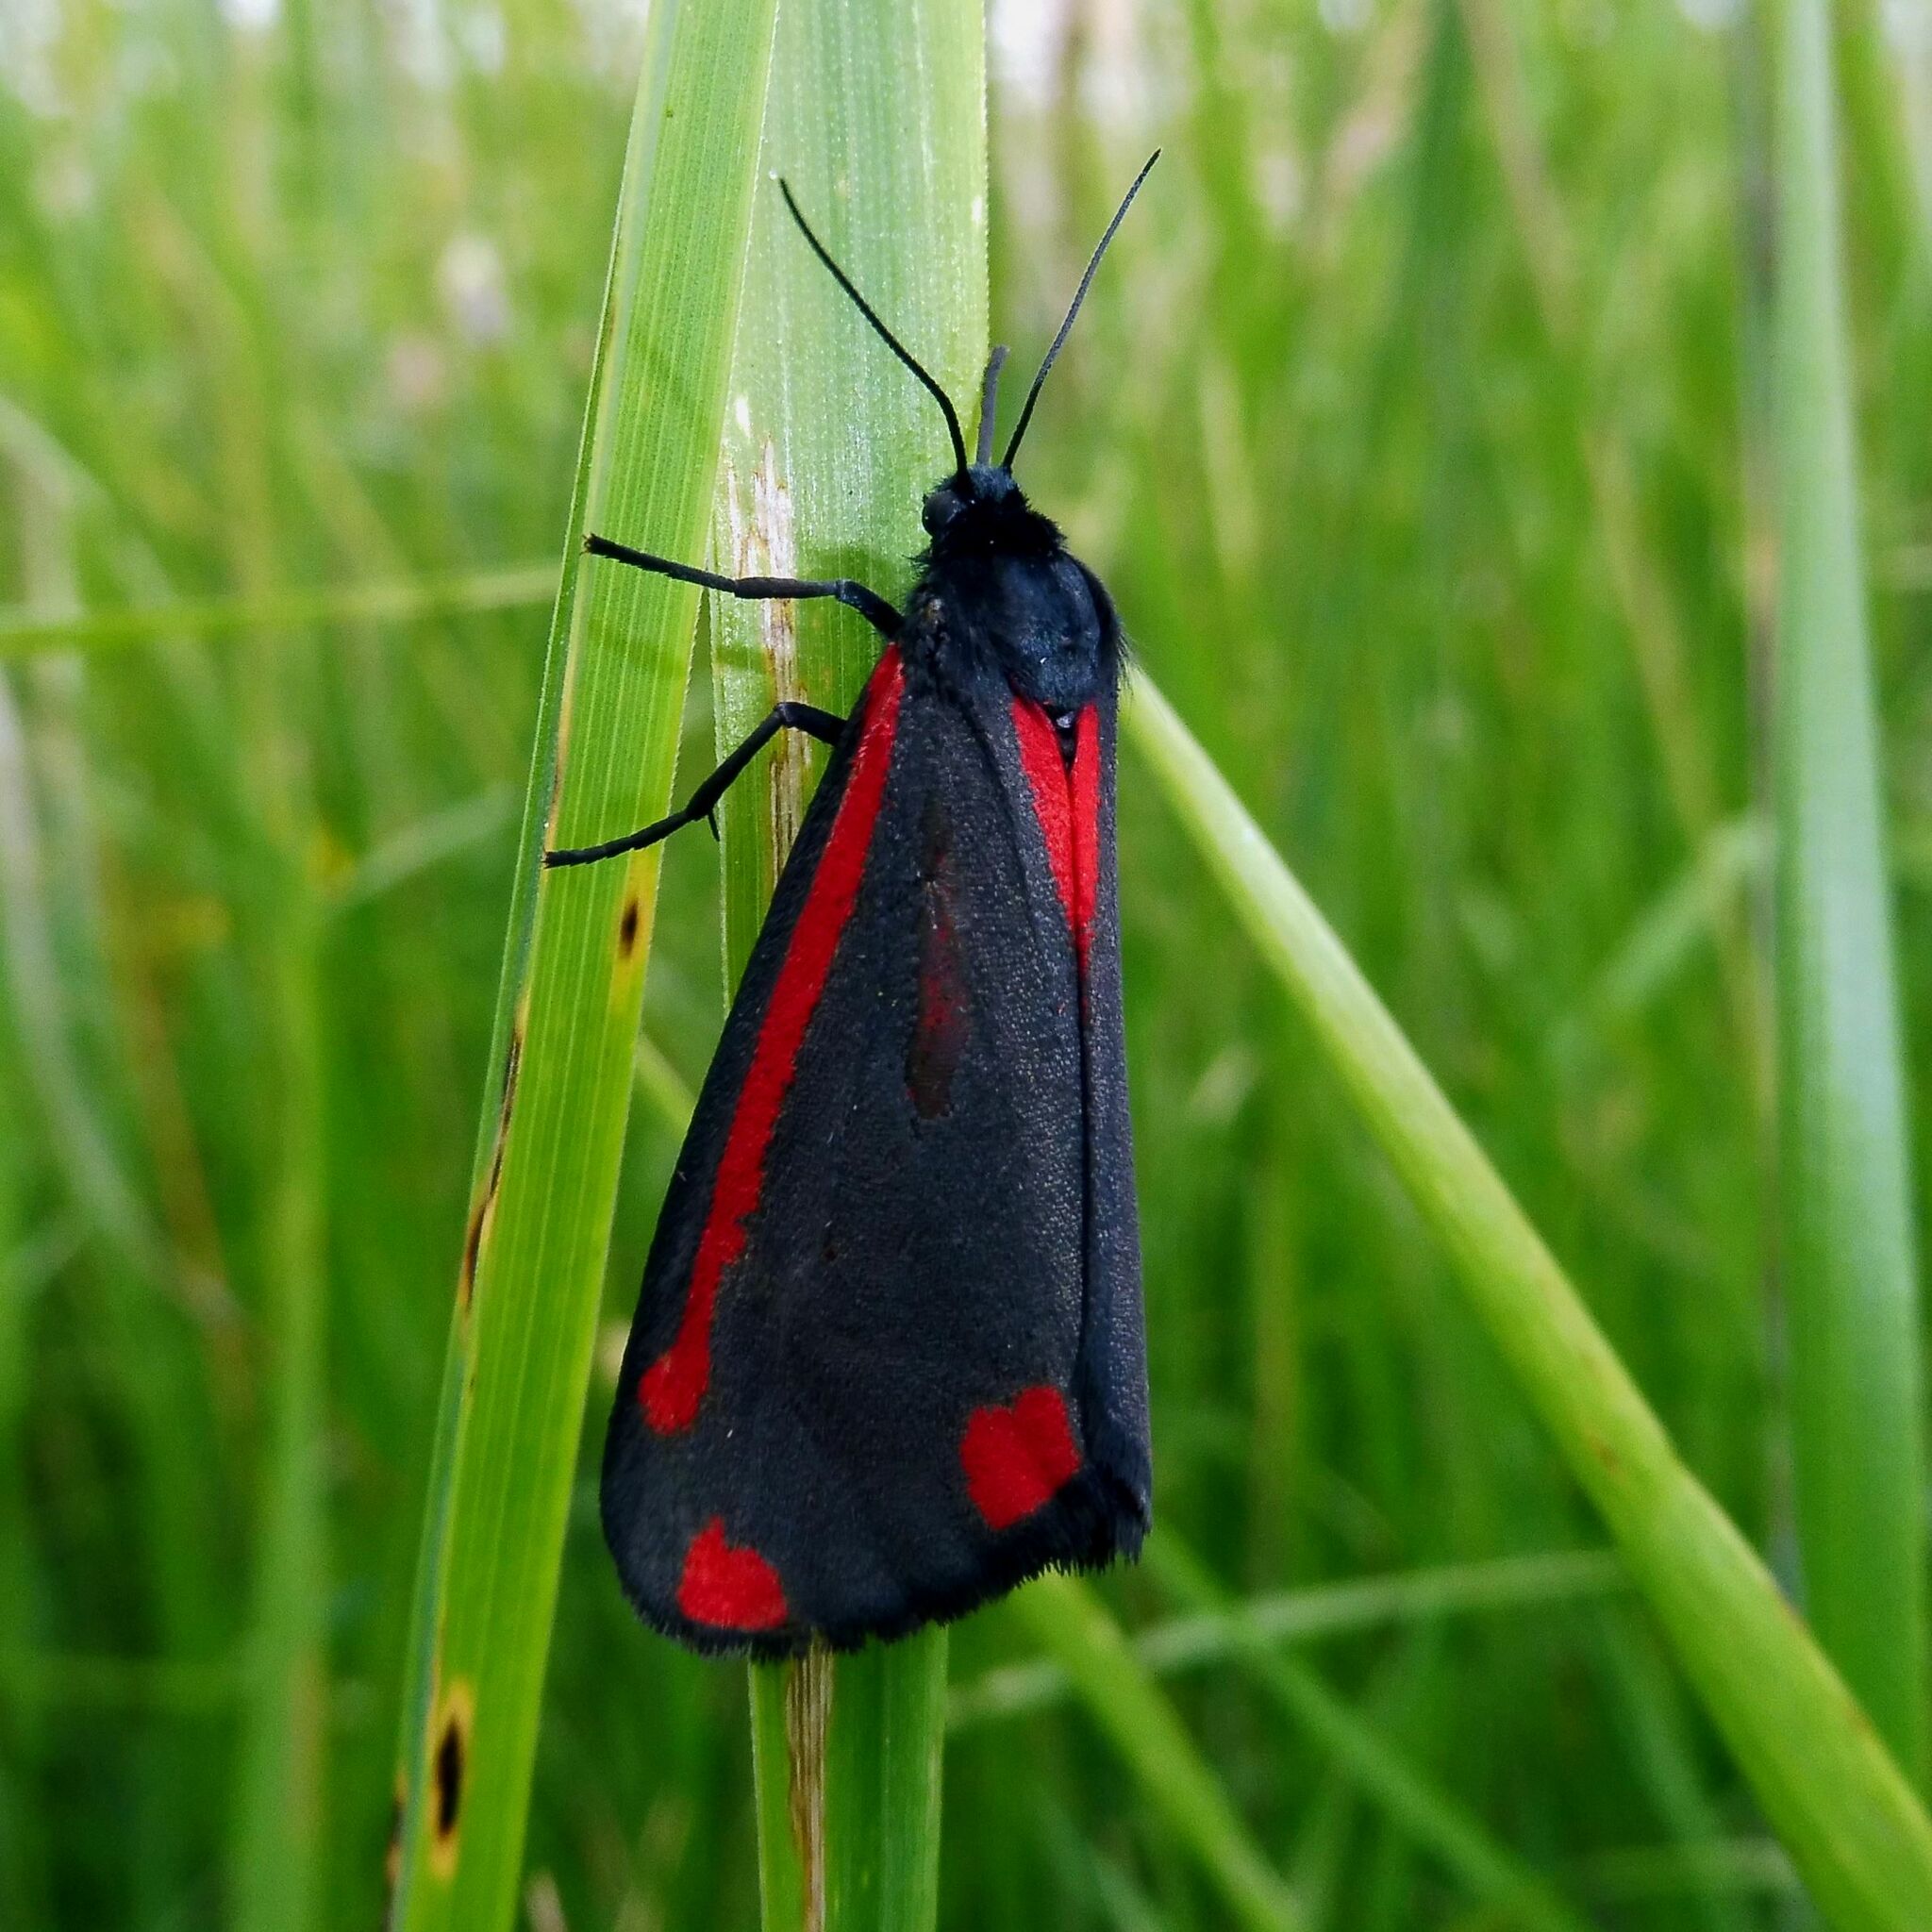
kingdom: Animalia
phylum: Arthropoda
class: Insecta
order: Lepidoptera
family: Erebidae
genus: Tyria
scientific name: Tyria jacobaeae
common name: Cinnabar
